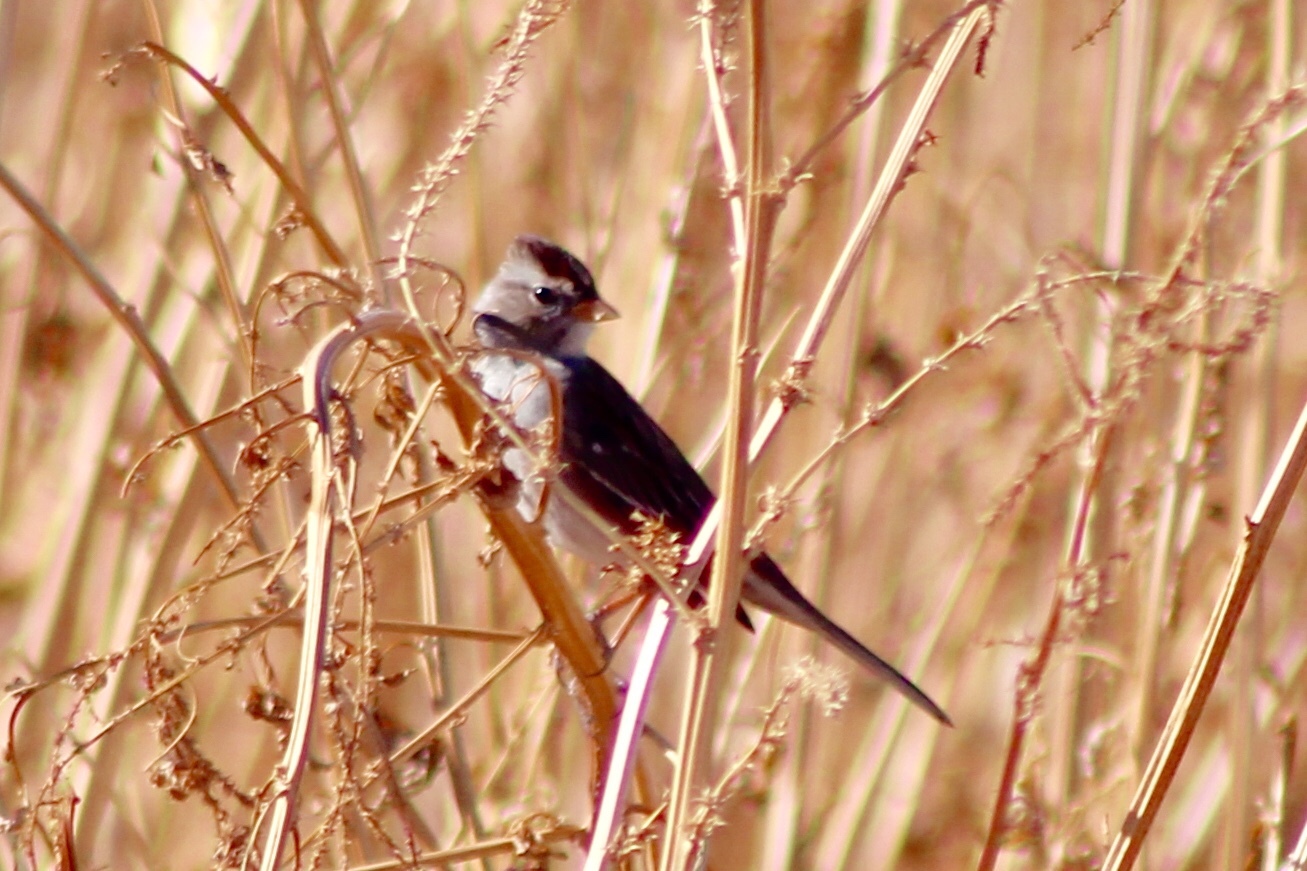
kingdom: Animalia
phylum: Chordata
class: Aves
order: Passeriformes
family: Passerellidae
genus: Zonotrichia
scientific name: Zonotrichia leucophrys
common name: White-crowned sparrow
